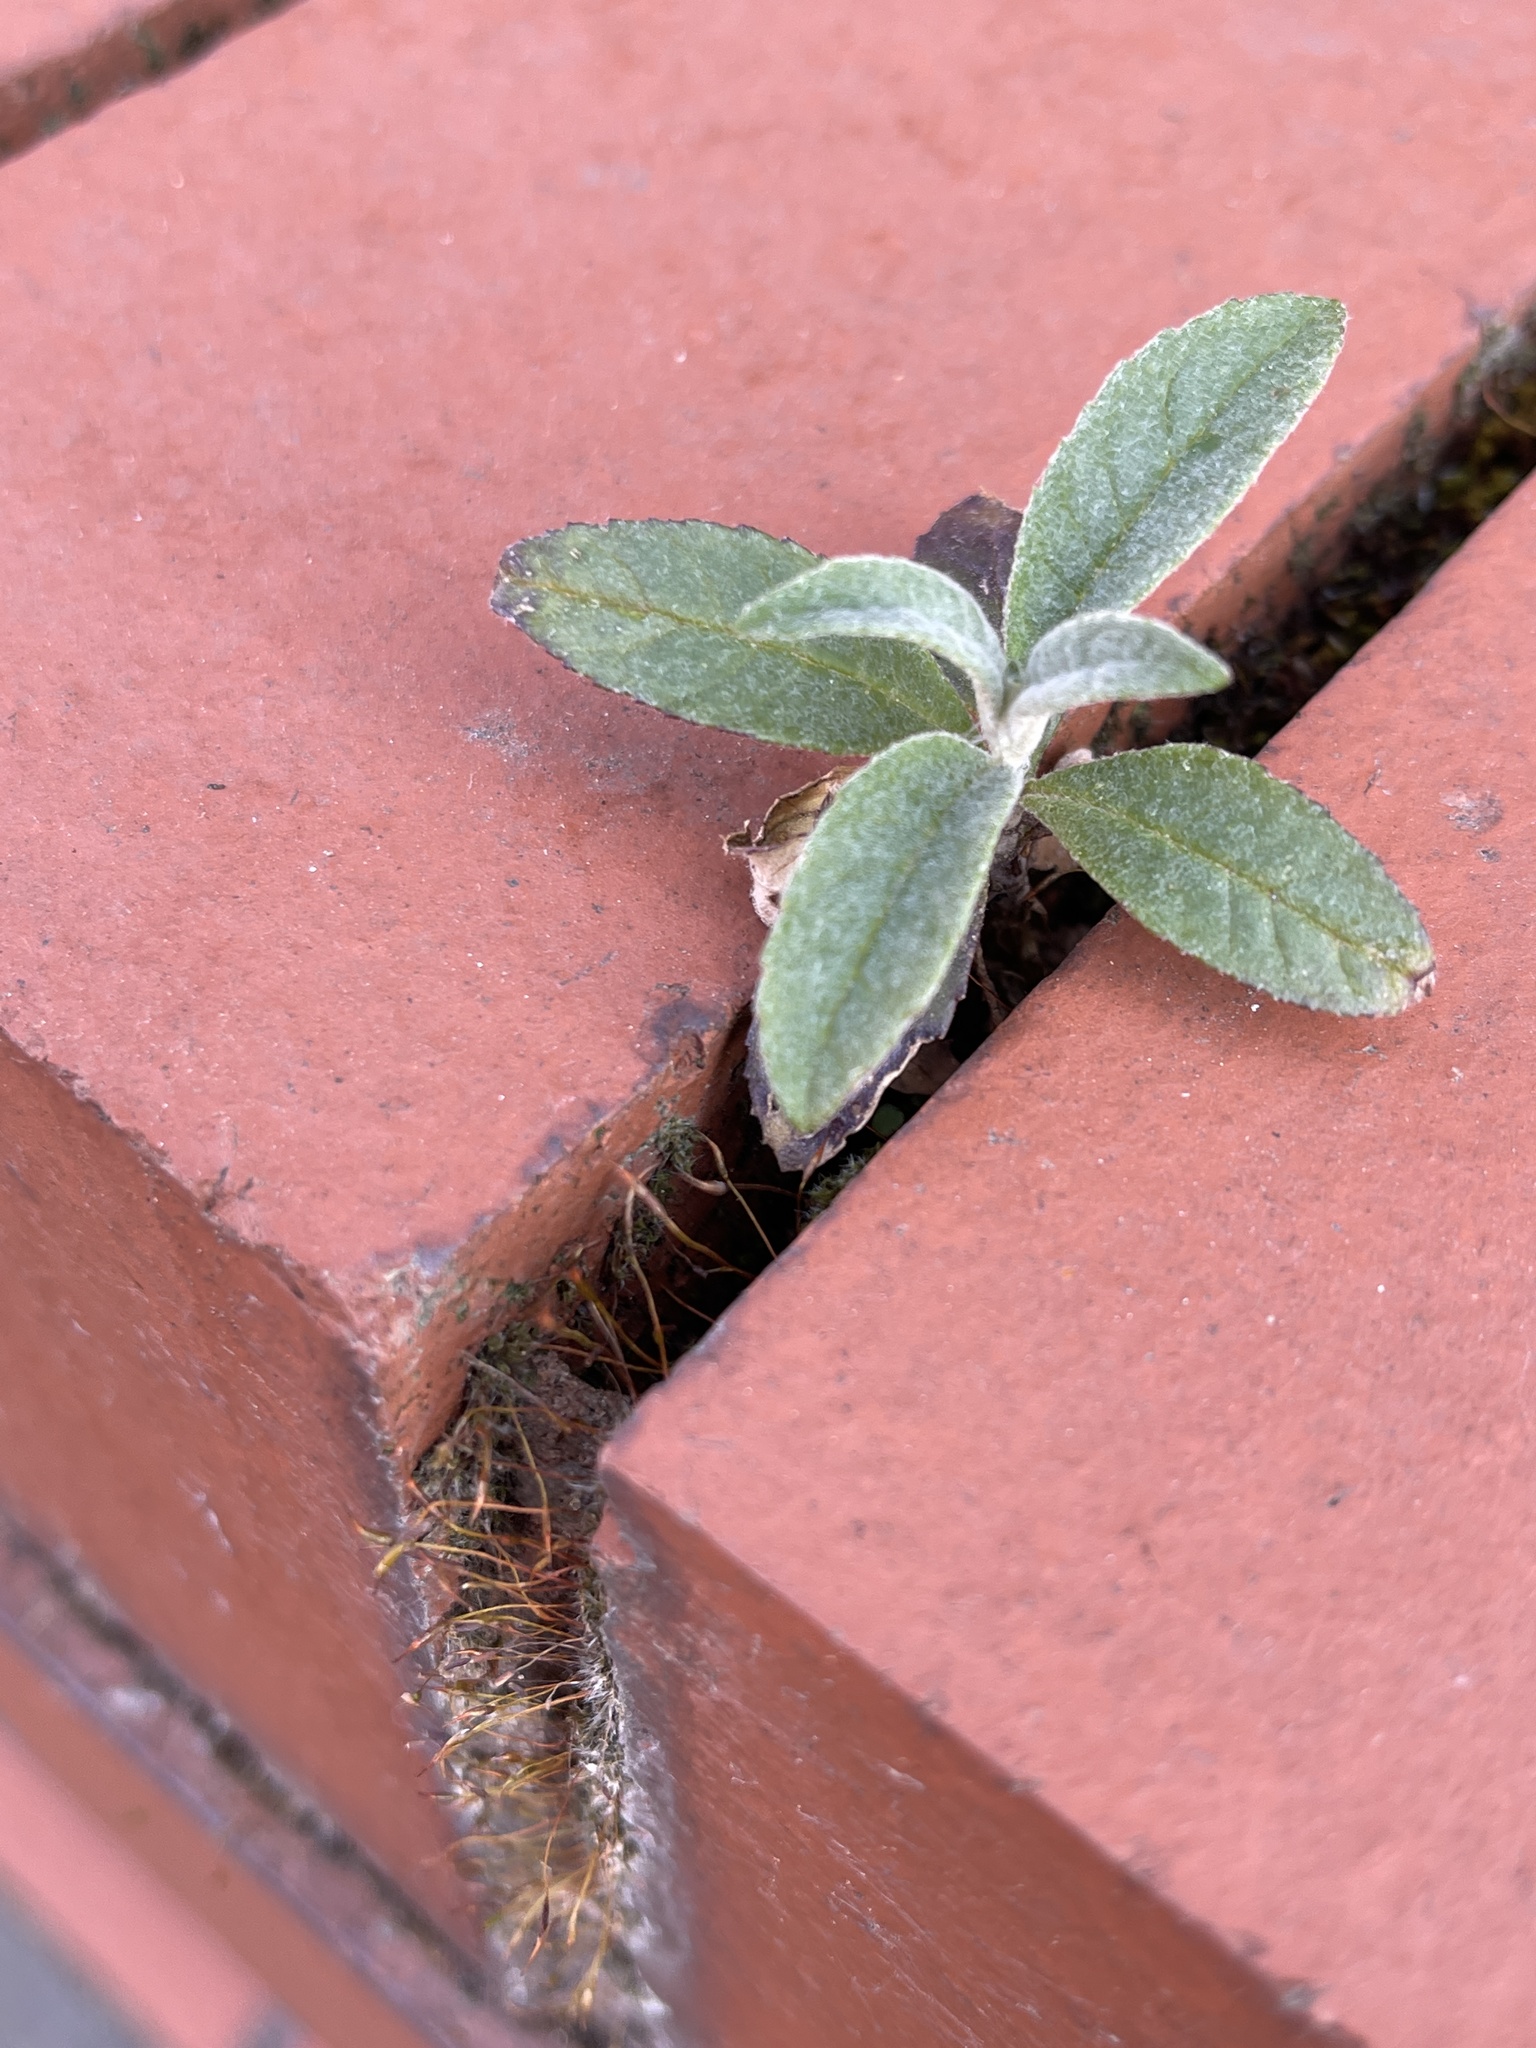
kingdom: Plantae
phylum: Tracheophyta
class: Magnoliopsida
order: Lamiales
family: Scrophulariaceae
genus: Buddleja
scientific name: Buddleja davidii
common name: Butterfly-bush
